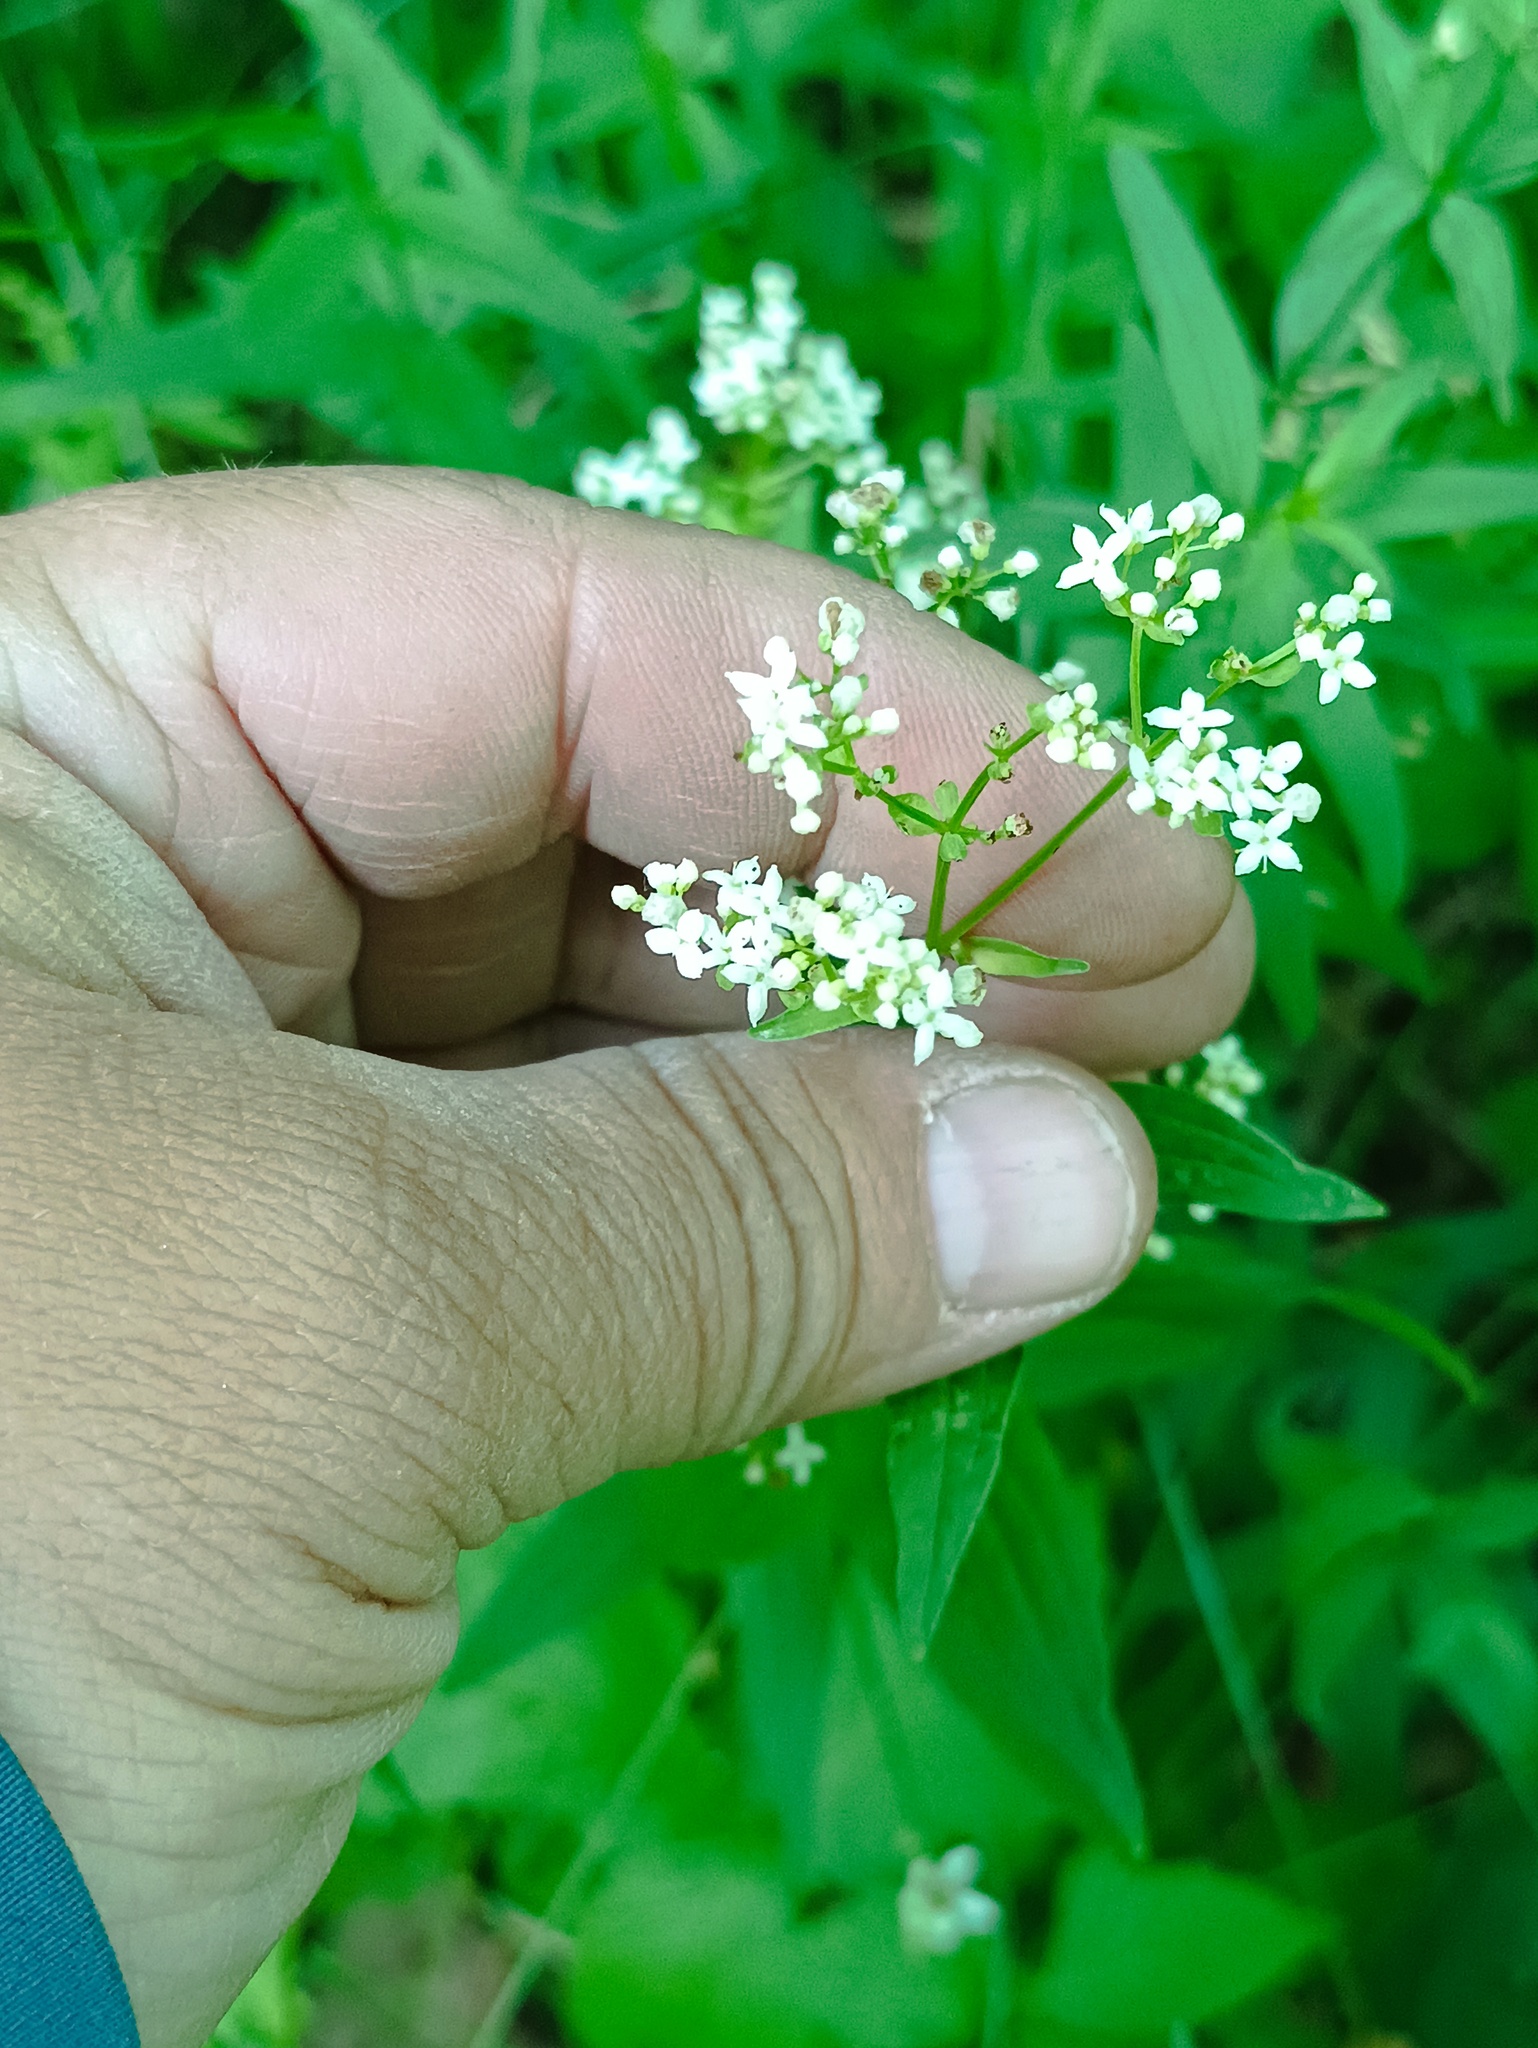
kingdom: Plantae
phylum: Tracheophyta
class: Magnoliopsida
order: Gentianales
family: Rubiaceae
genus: Galium
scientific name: Galium rubioides
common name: European bedstraw
